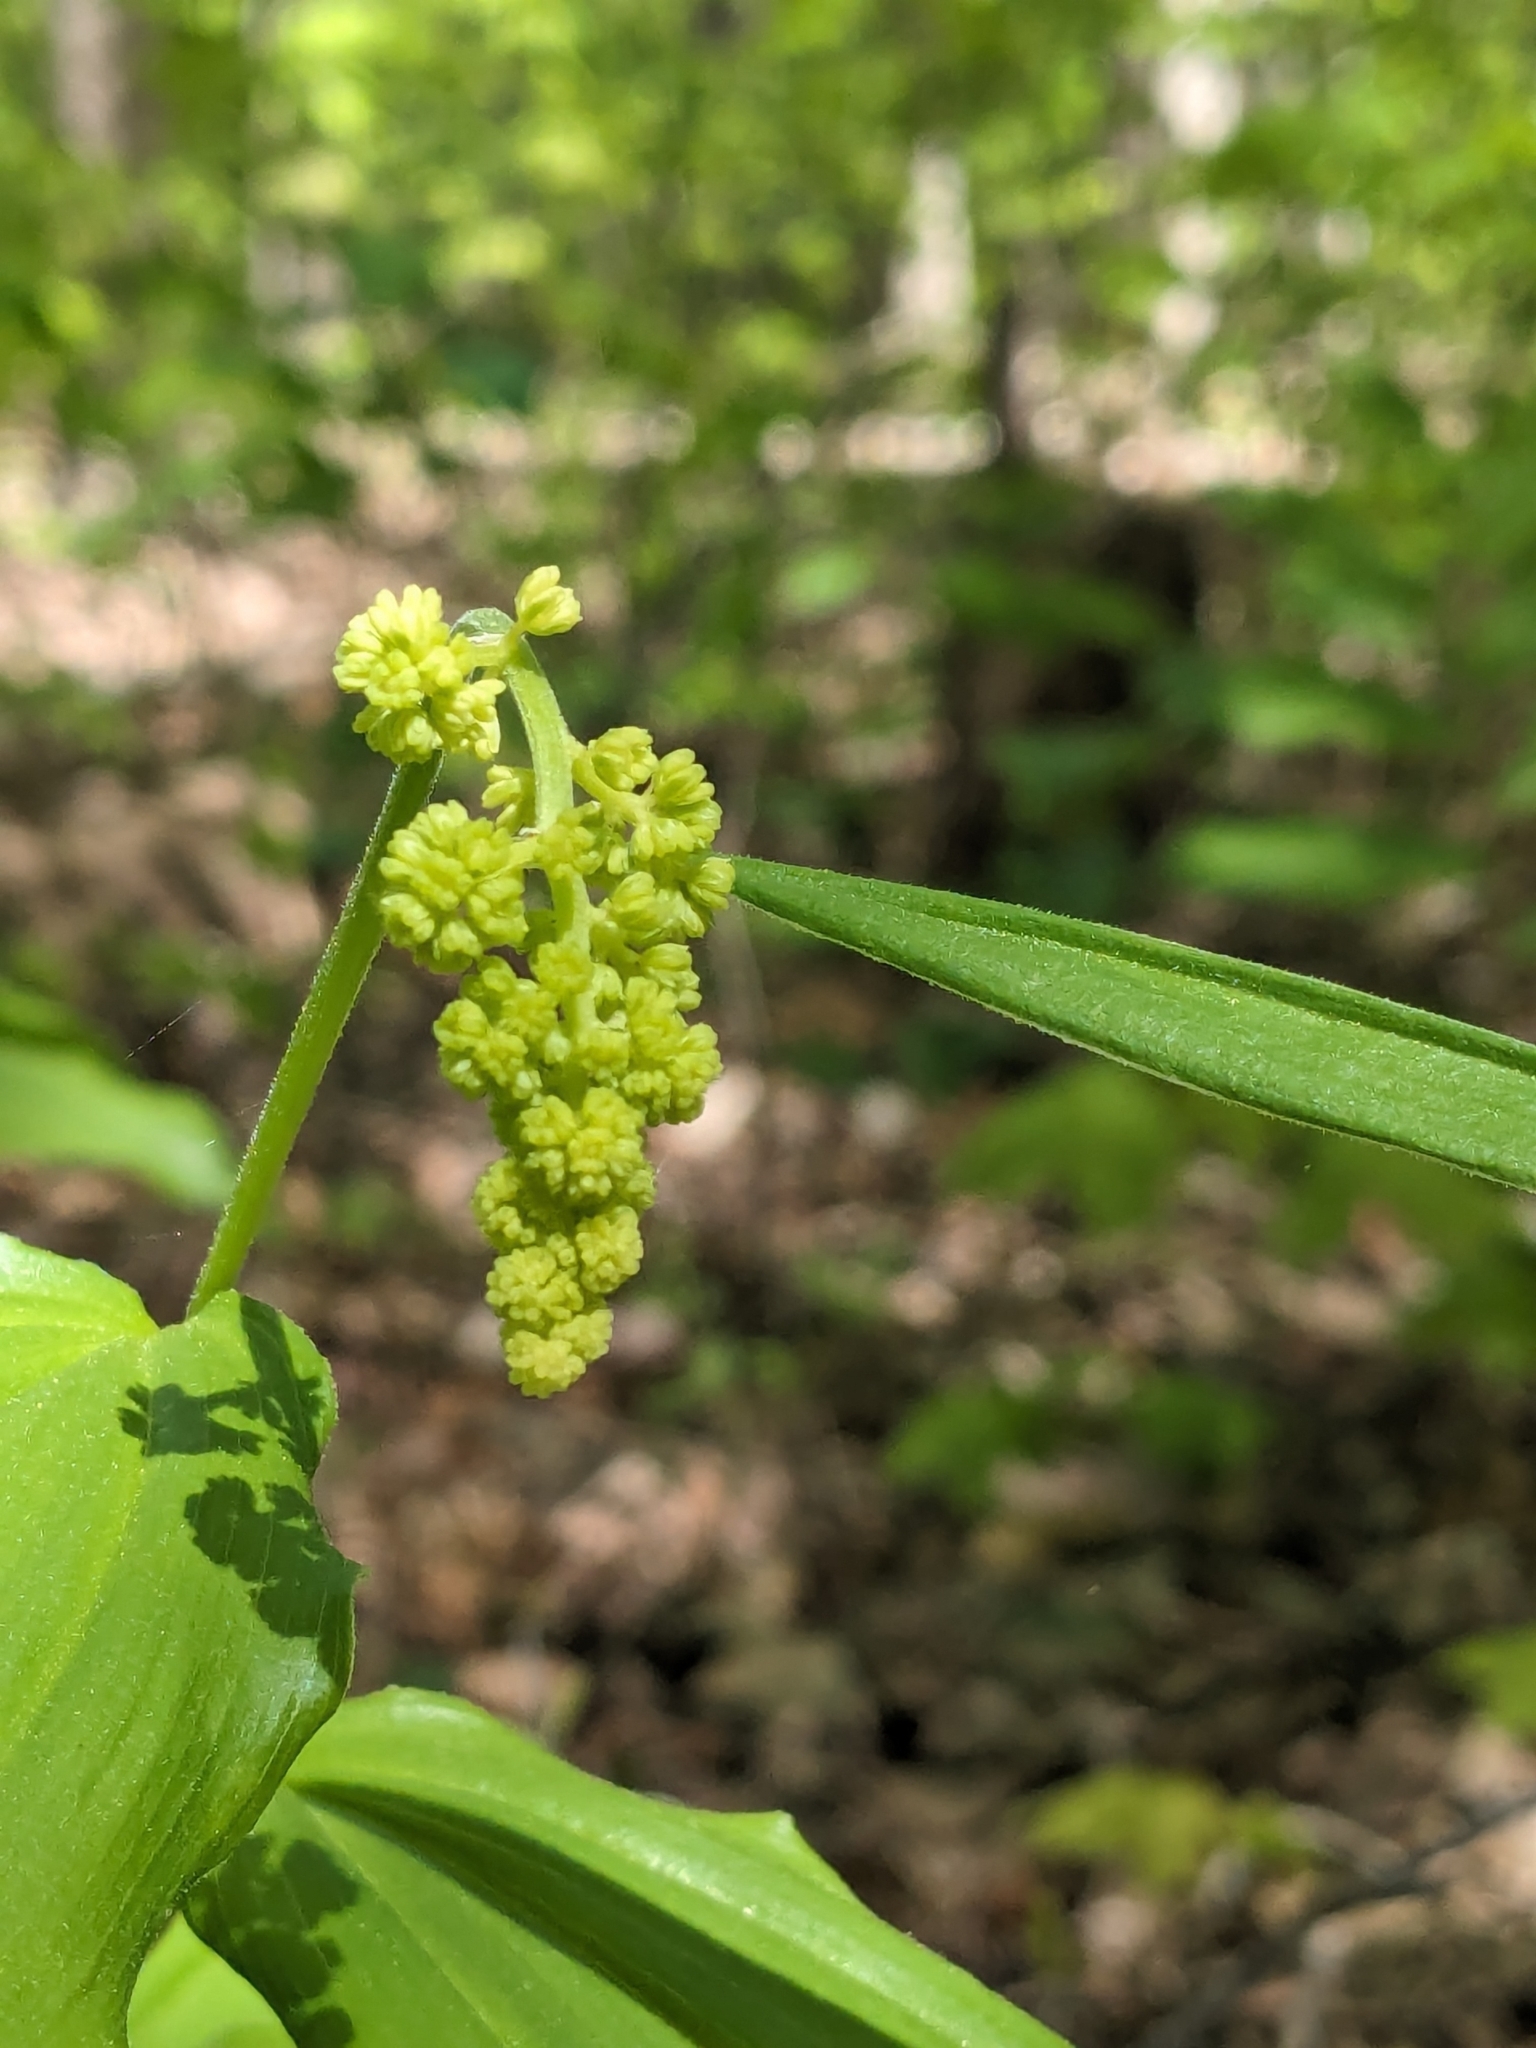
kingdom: Plantae
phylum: Tracheophyta
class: Liliopsida
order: Asparagales
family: Asparagaceae
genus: Maianthemum
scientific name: Maianthemum racemosum
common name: False spikenard
